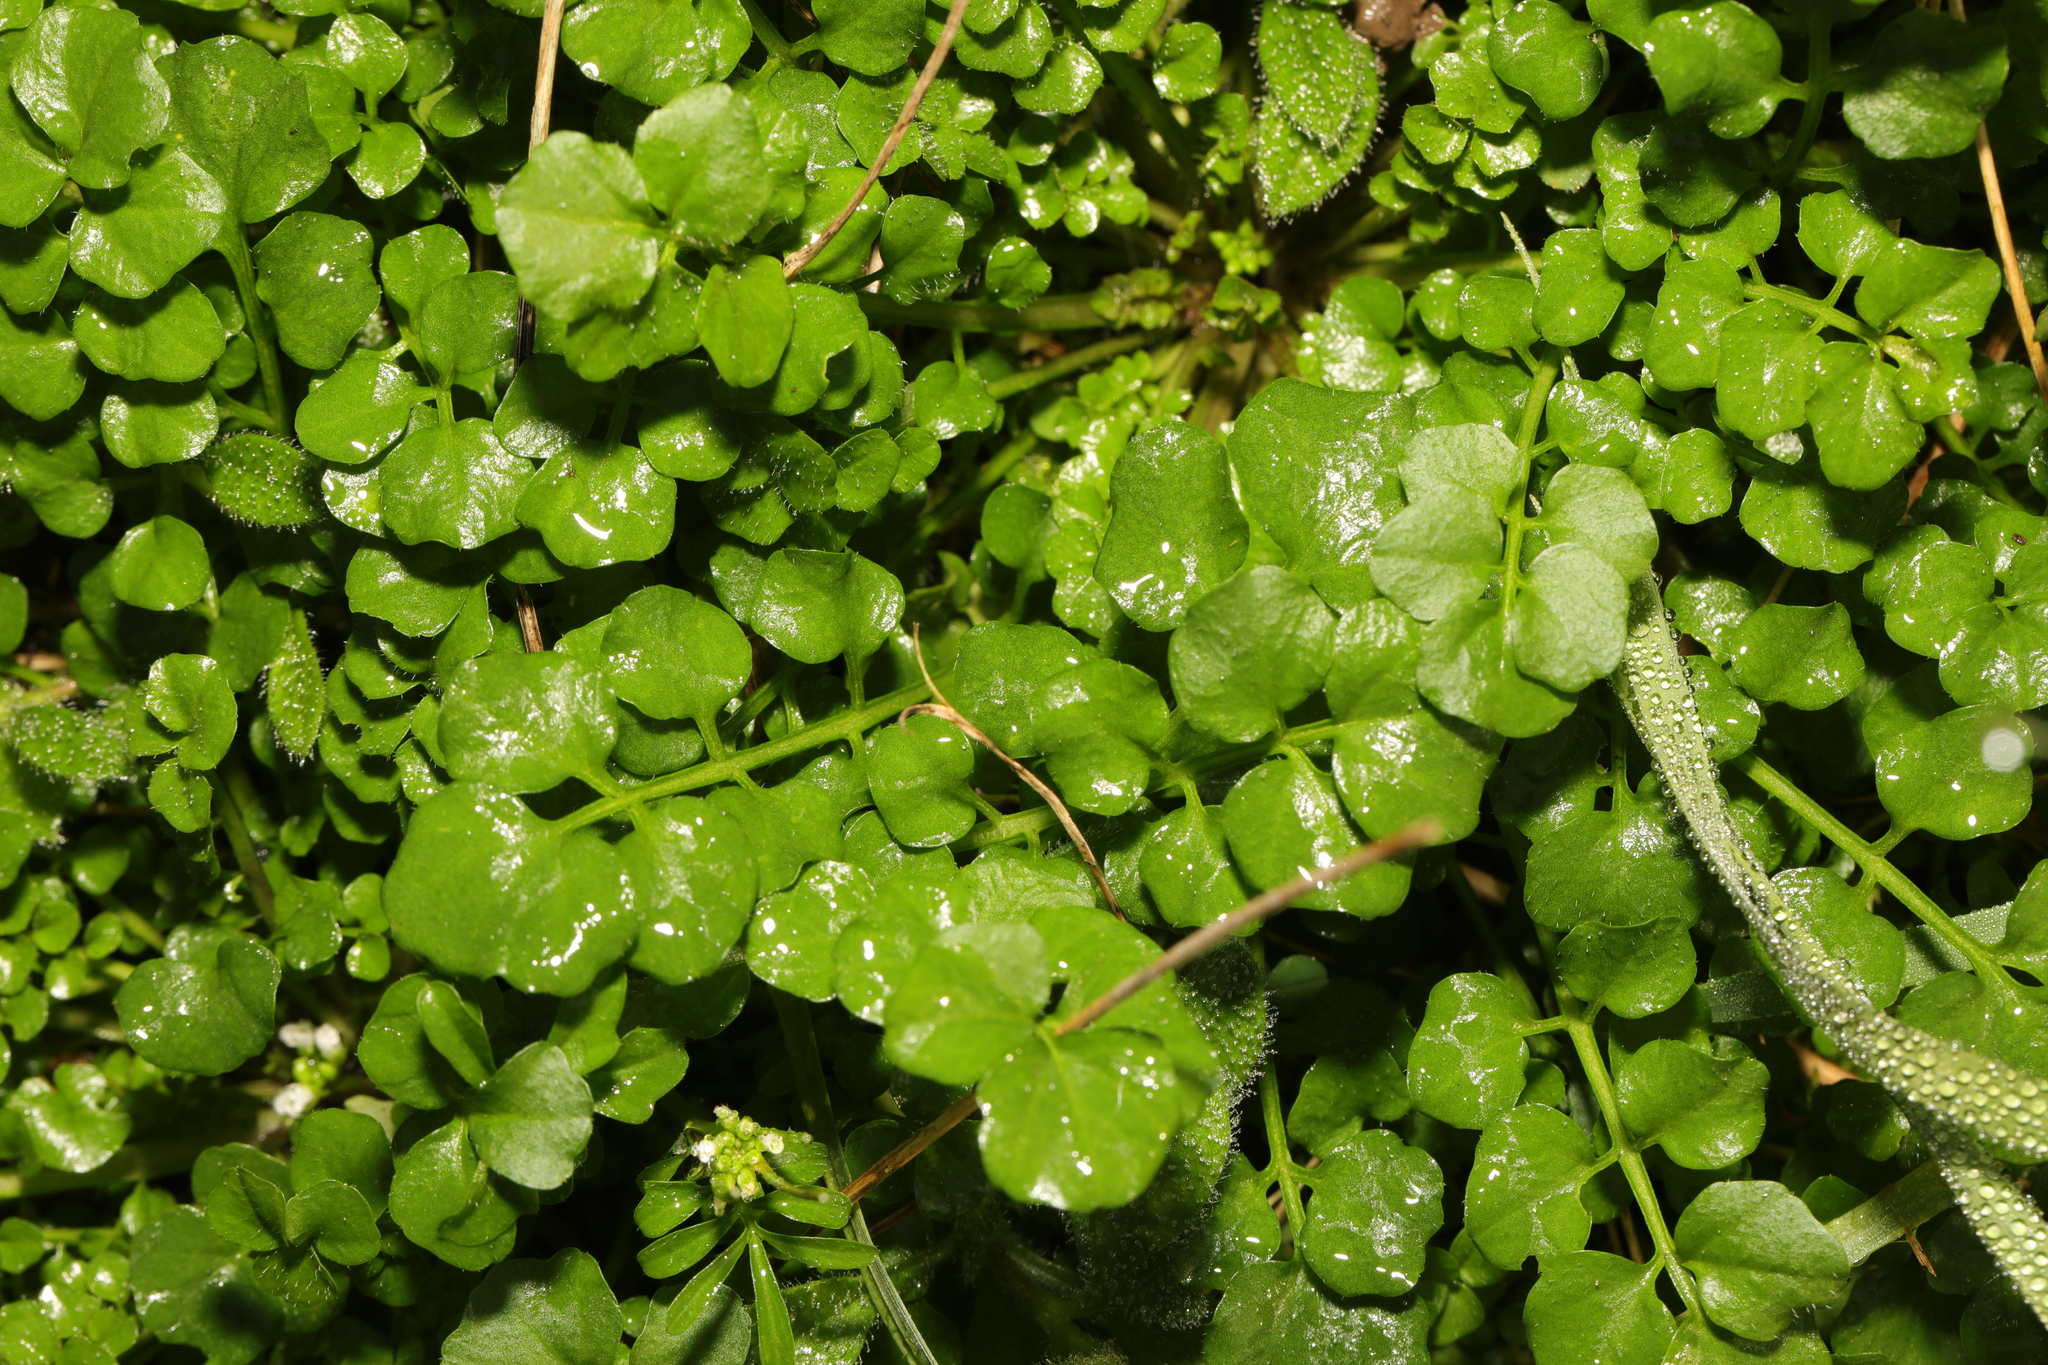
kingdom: Plantae
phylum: Tracheophyta
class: Magnoliopsida
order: Brassicales
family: Brassicaceae
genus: Cardamine
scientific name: Cardamine hirsuta
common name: Hairy bittercress
